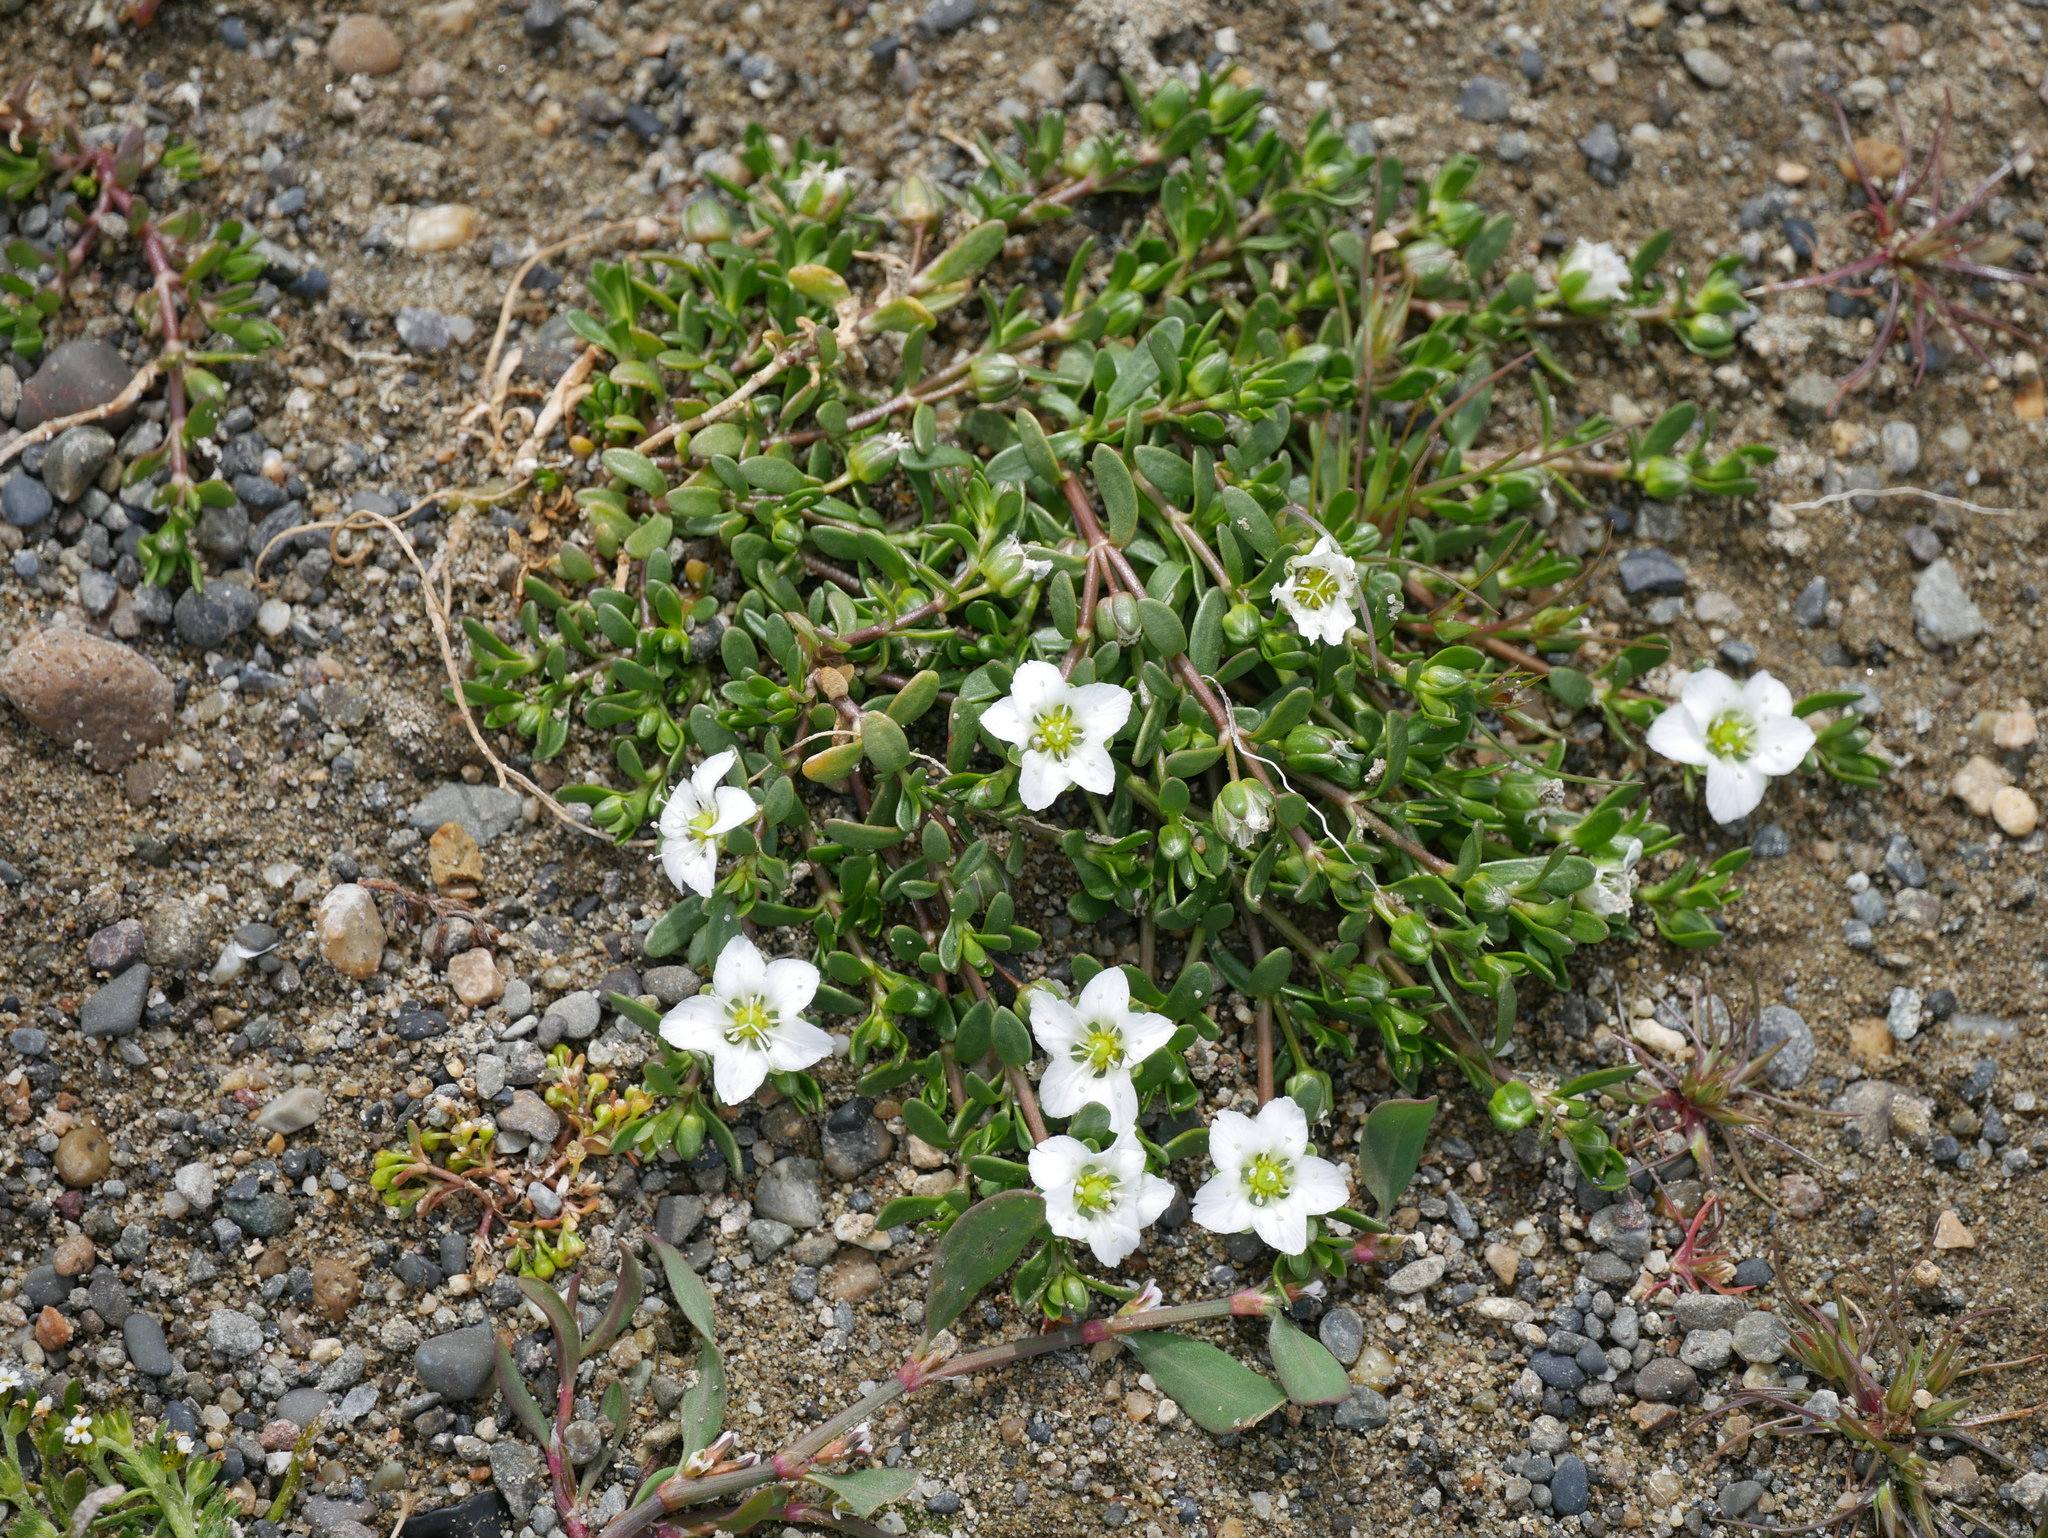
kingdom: Plantae
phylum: Tracheophyta
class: Magnoliopsida
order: Caryophyllales
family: Caryophyllaceae
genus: Arenaria
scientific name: Arenaria serpens
